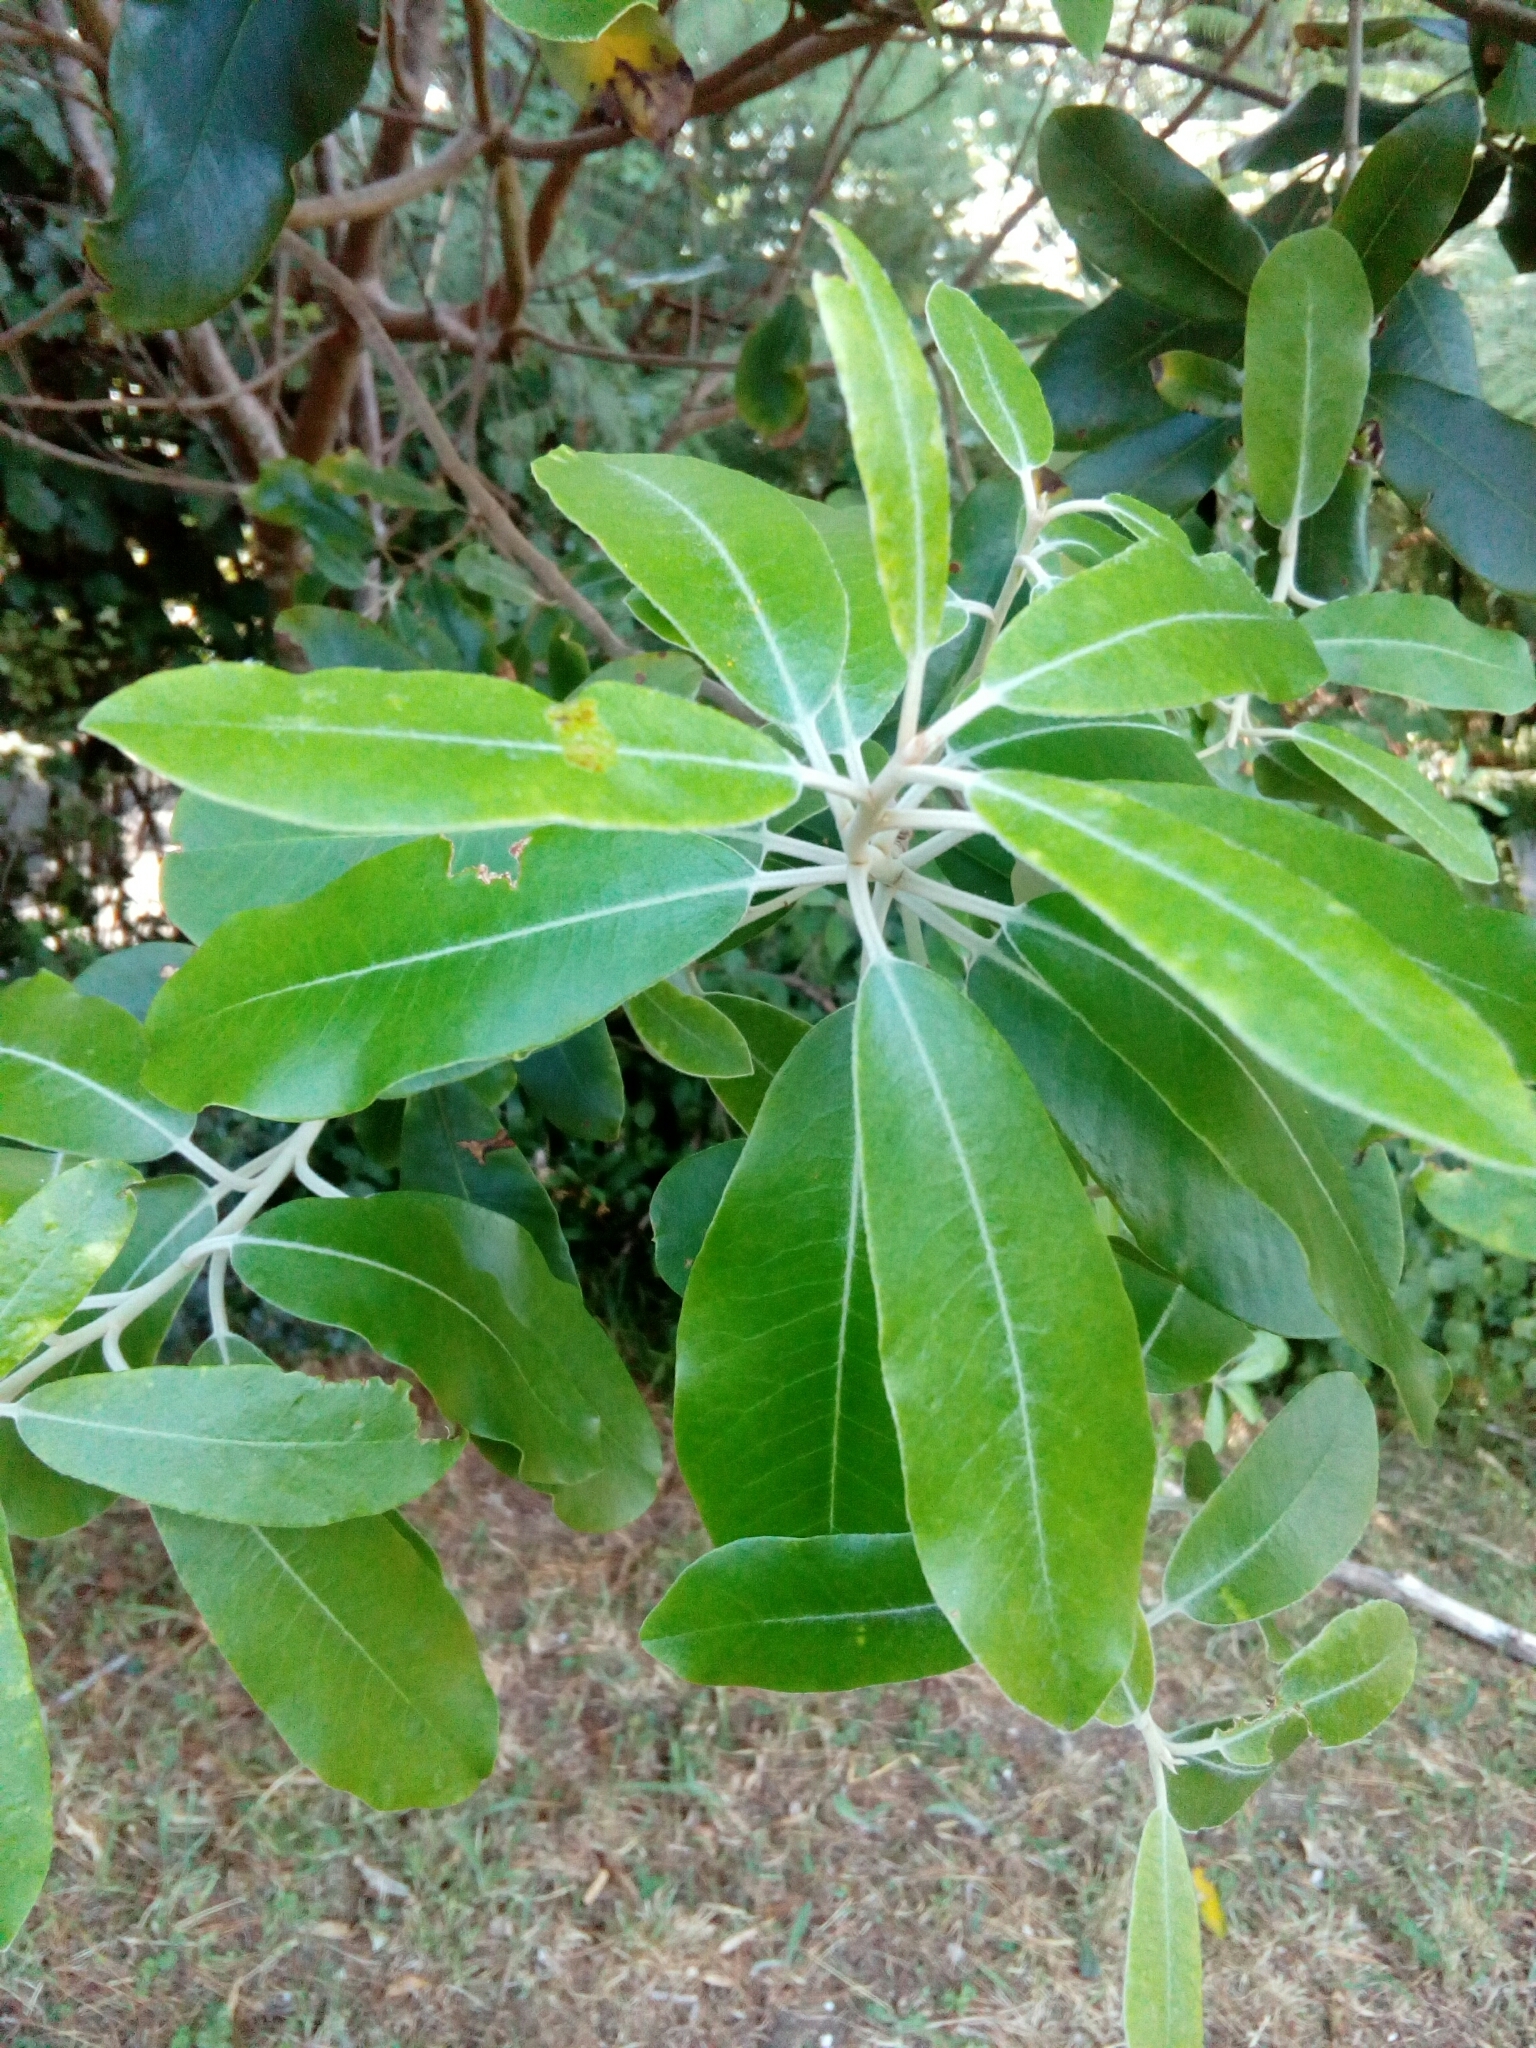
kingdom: Plantae
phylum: Tracheophyta
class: Magnoliopsida
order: Apiales
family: Pittosporaceae
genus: Pittosporum
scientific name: Pittosporum ralphii
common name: Ralph's desertwillow
